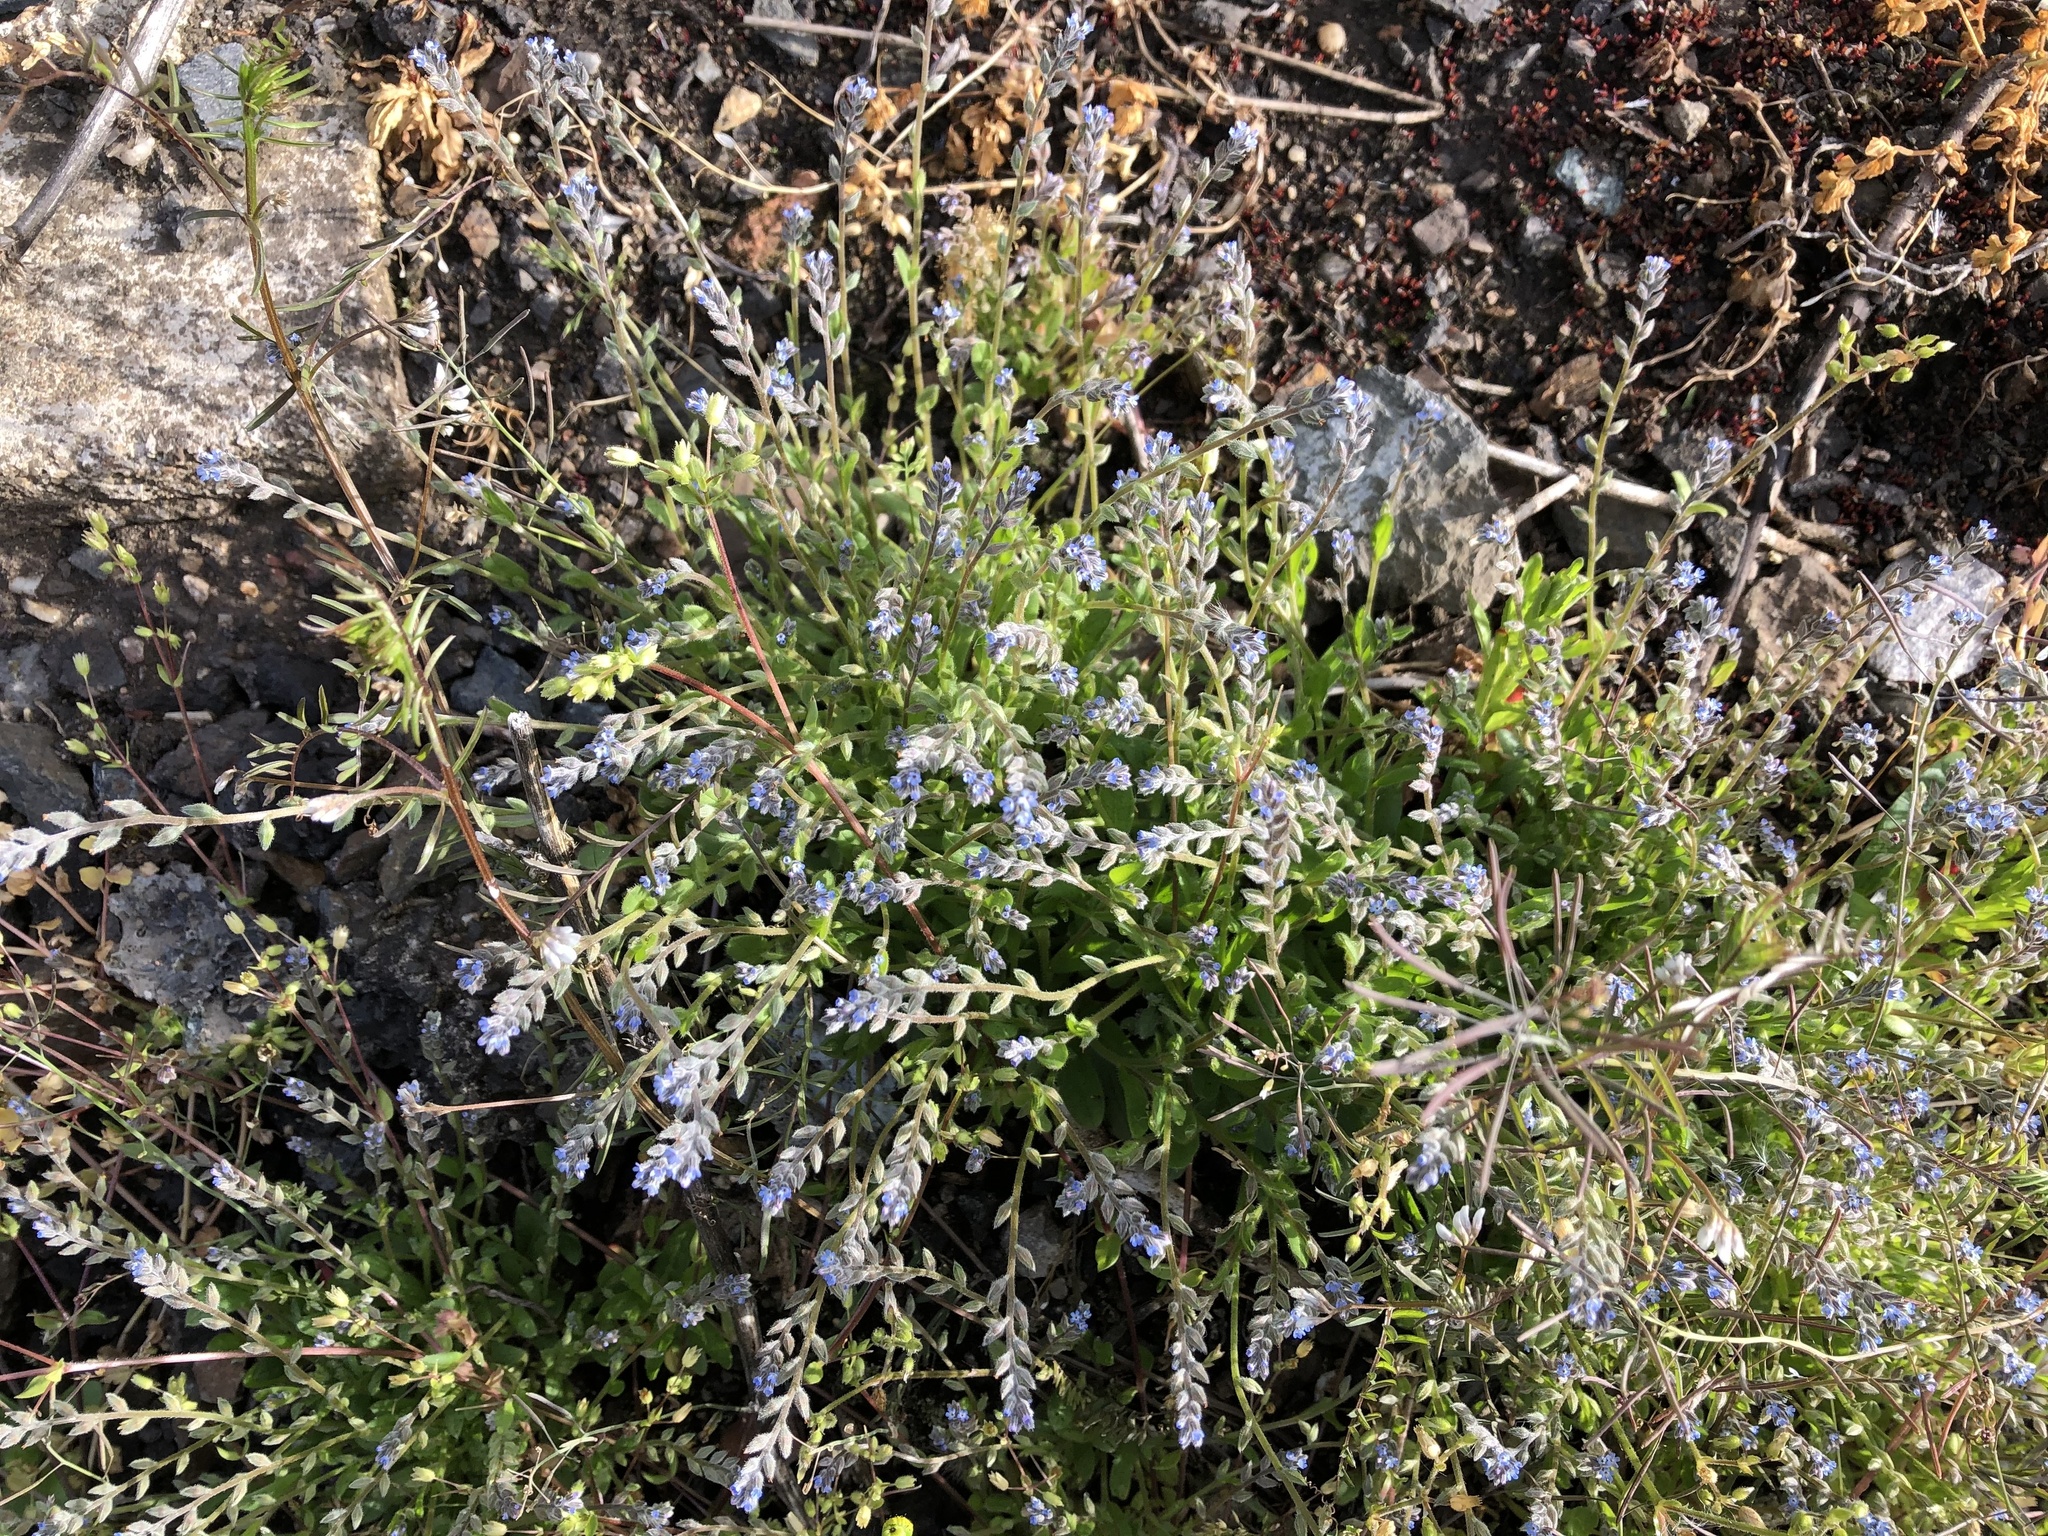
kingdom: Plantae
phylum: Tracheophyta
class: Magnoliopsida
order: Boraginales
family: Boraginaceae
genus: Myosotis
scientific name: Myosotis stricta
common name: Strict forget-me-not
